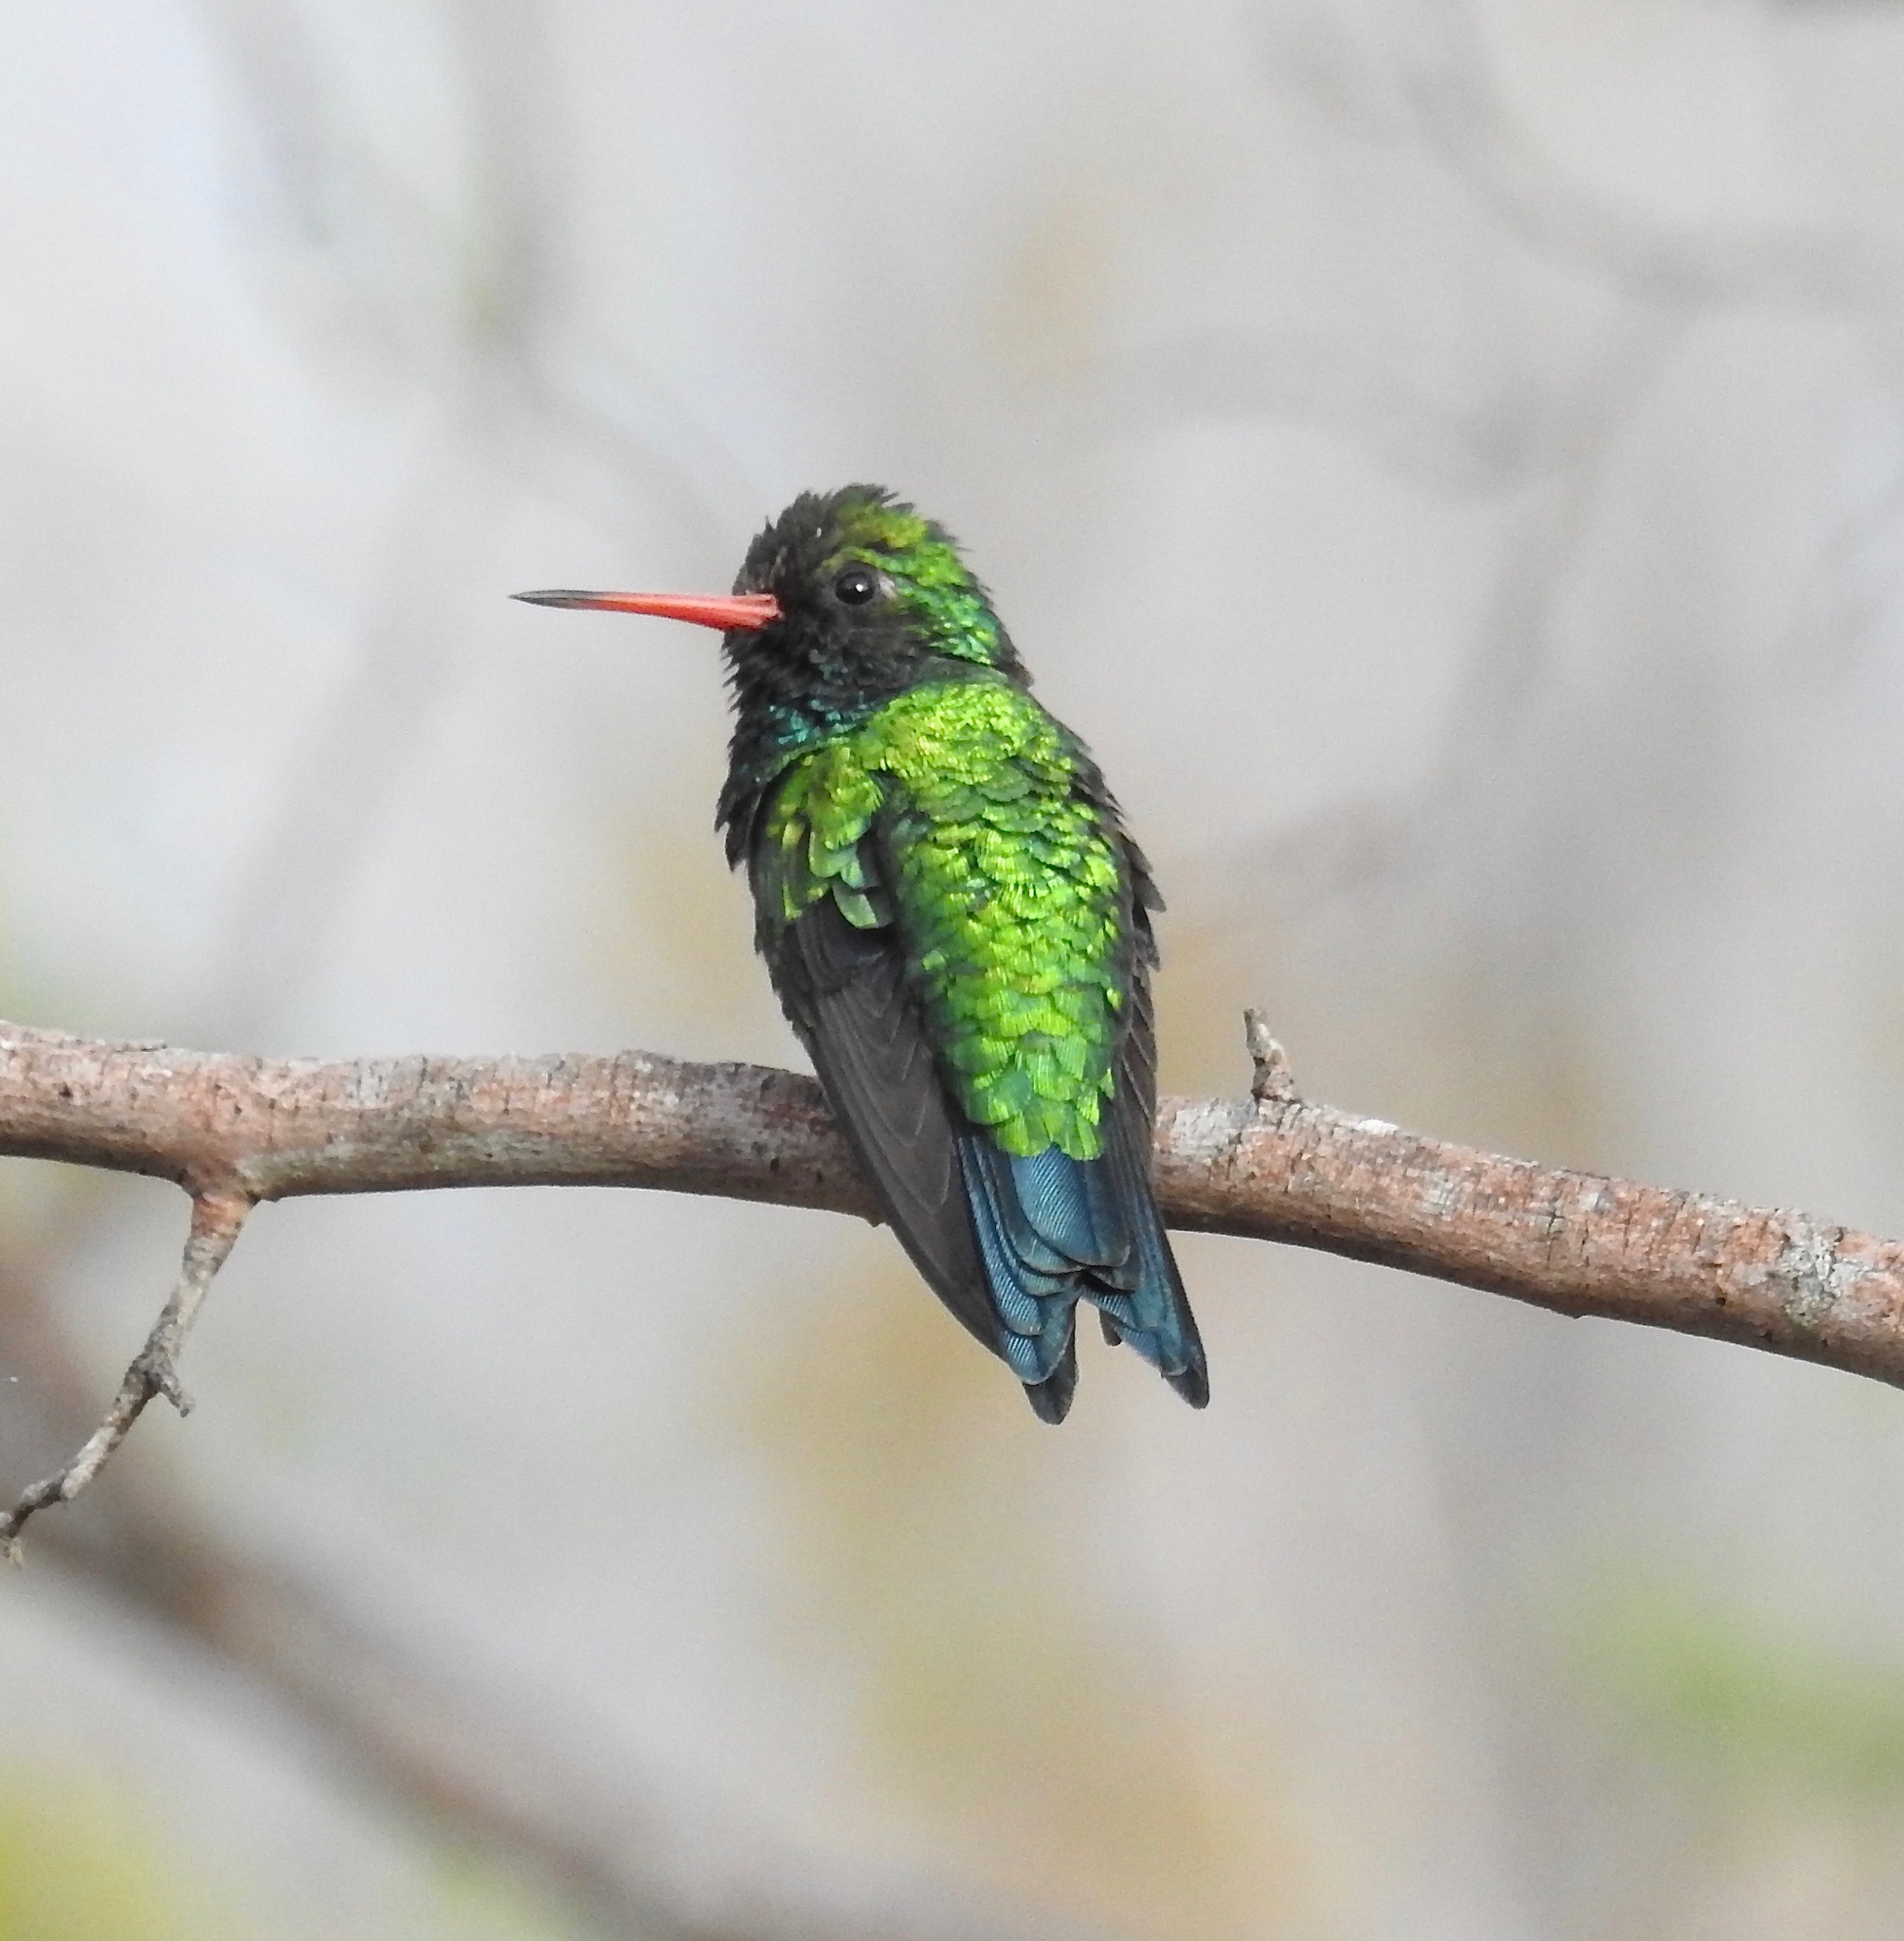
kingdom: Animalia
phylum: Chordata
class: Aves
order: Apodiformes
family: Trochilidae
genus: Chlorostilbon
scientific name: Chlorostilbon lucidus
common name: Glittering-bellied emerald
